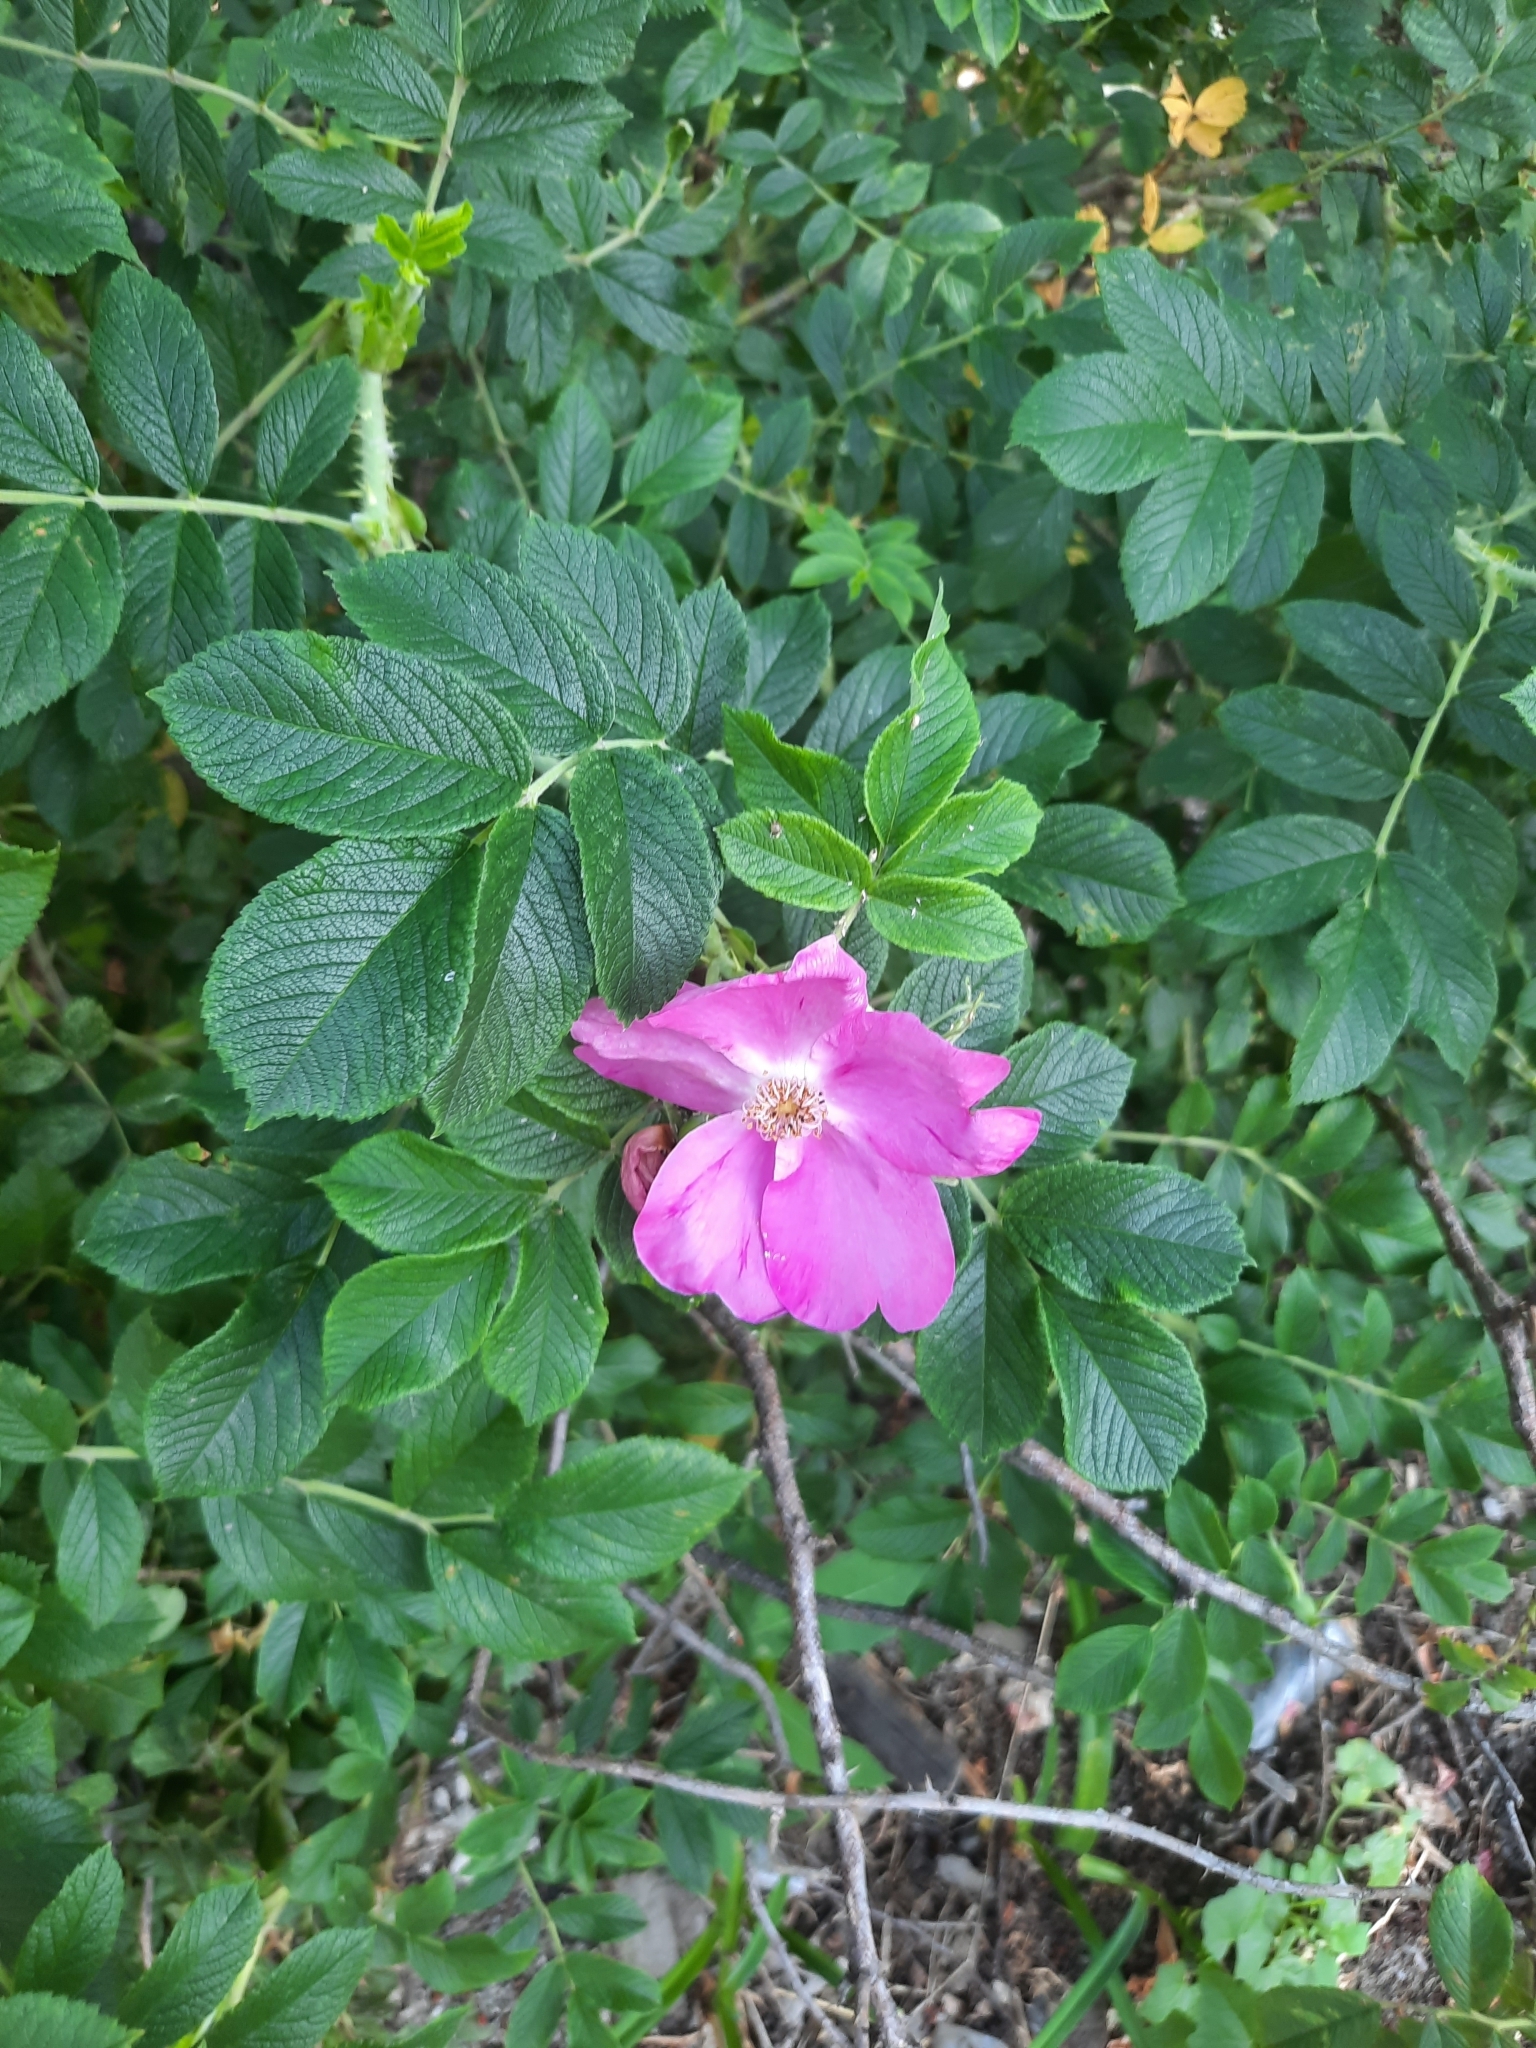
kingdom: Plantae
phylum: Tracheophyta
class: Magnoliopsida
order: Rosales
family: Rosaceae
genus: Rosa
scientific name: Rosa rugosa
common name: Japanese rose
